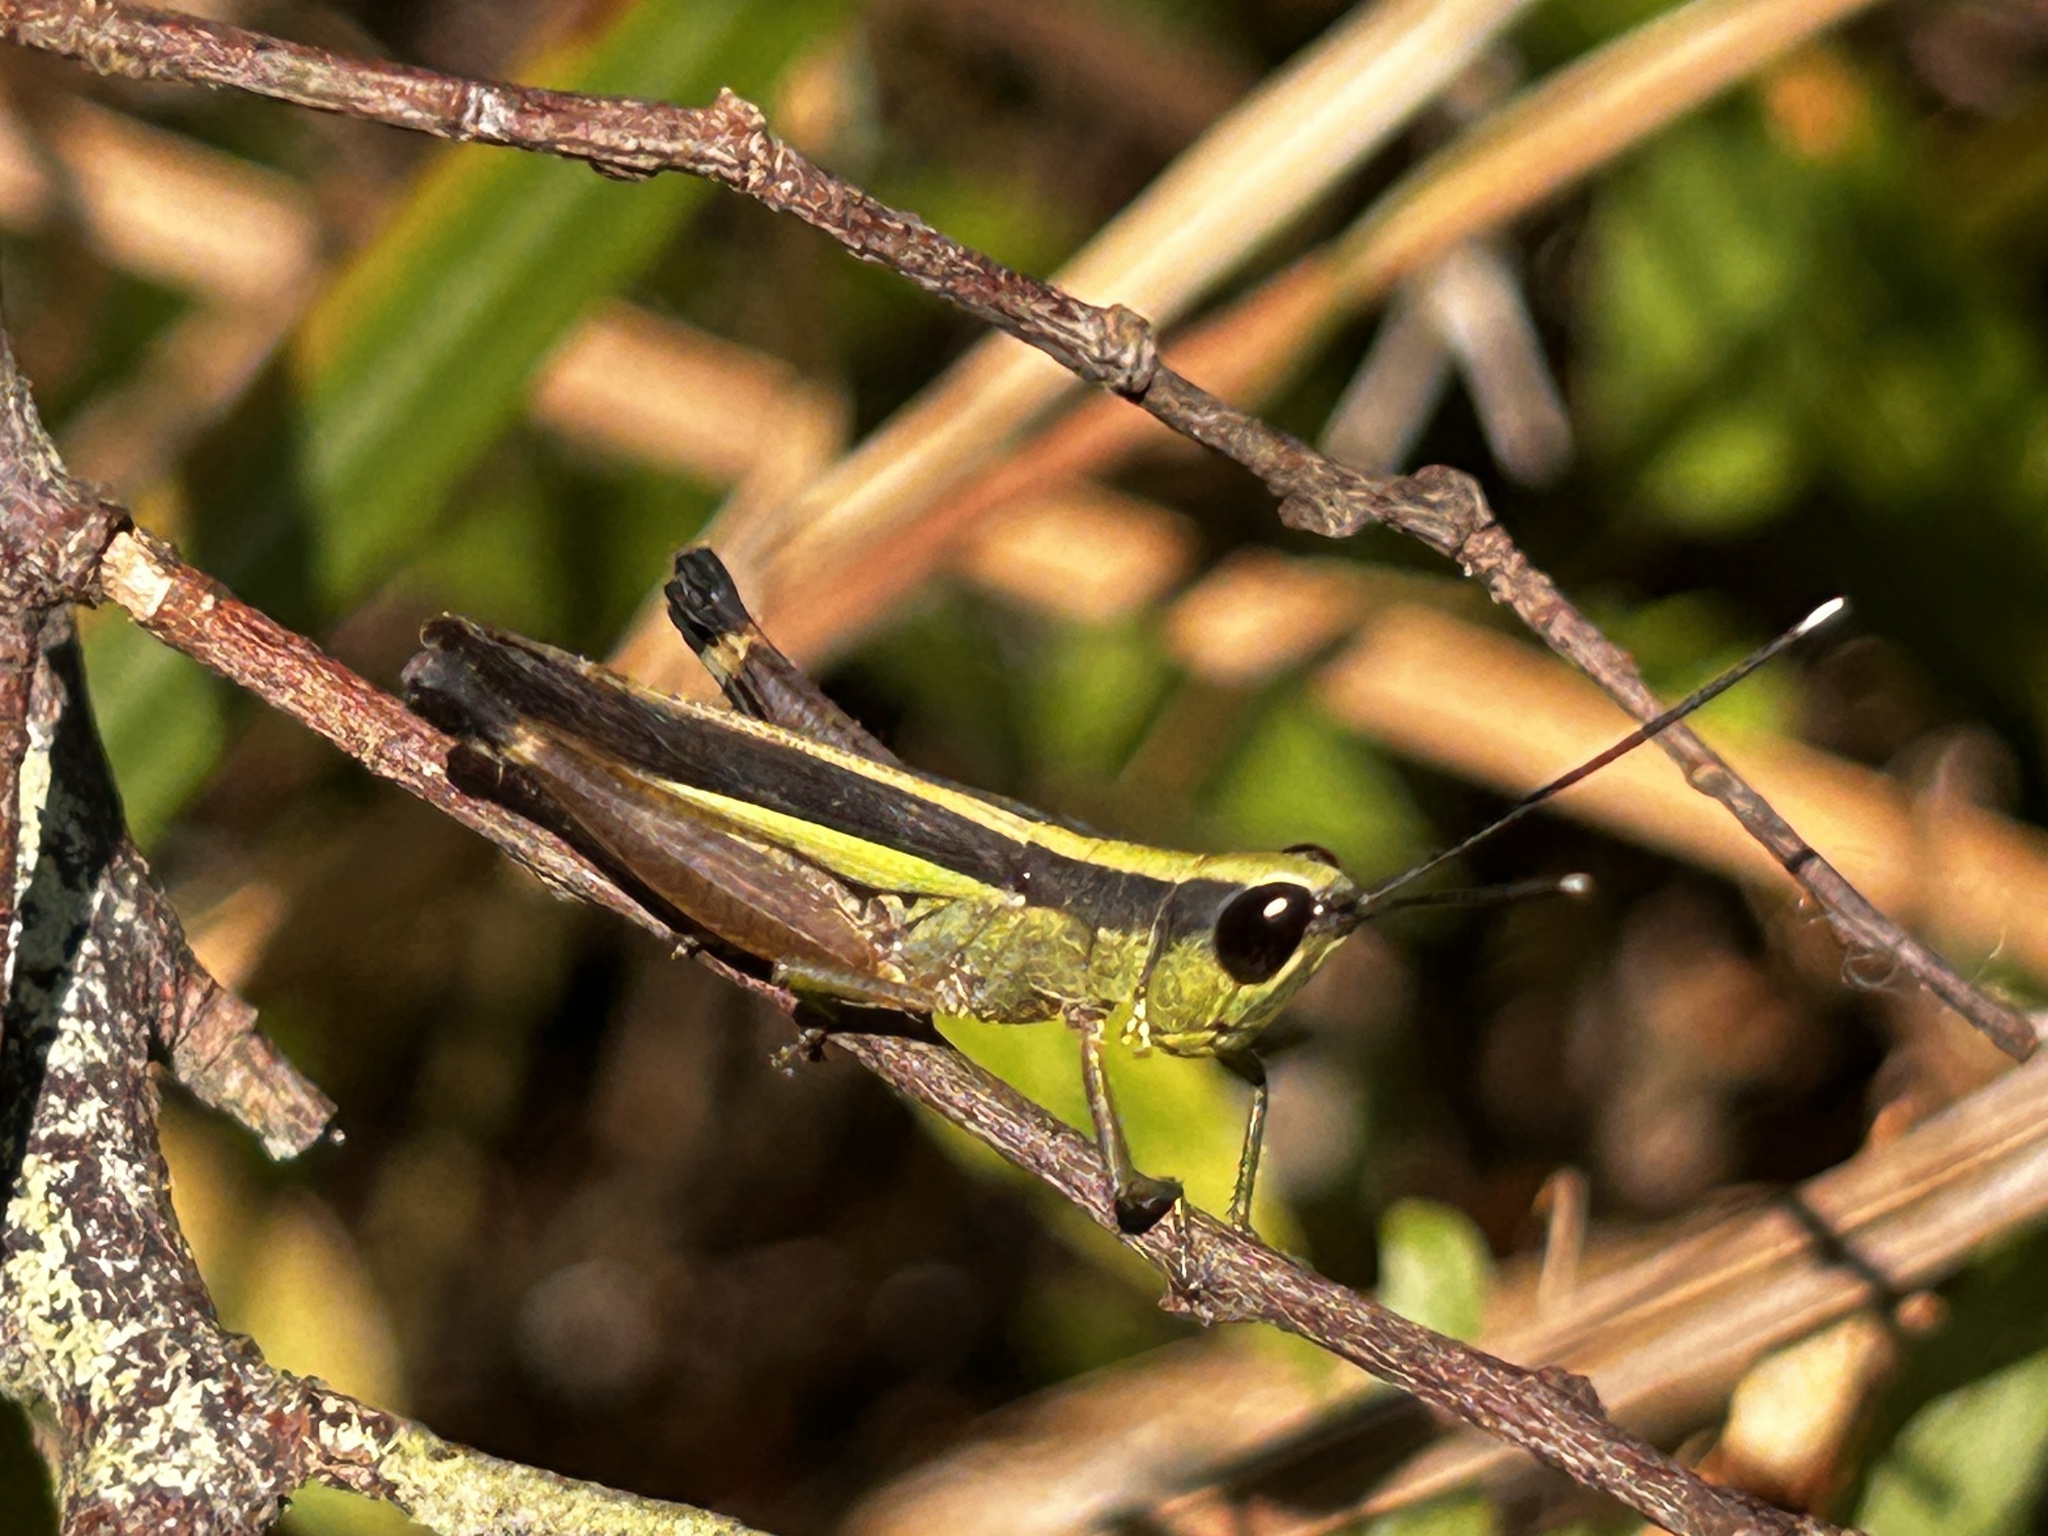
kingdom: Animalia
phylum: Arthropoda
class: Insecta
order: Orthoptera
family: Acrididae
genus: Ceracris
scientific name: Ceracris fasciata
